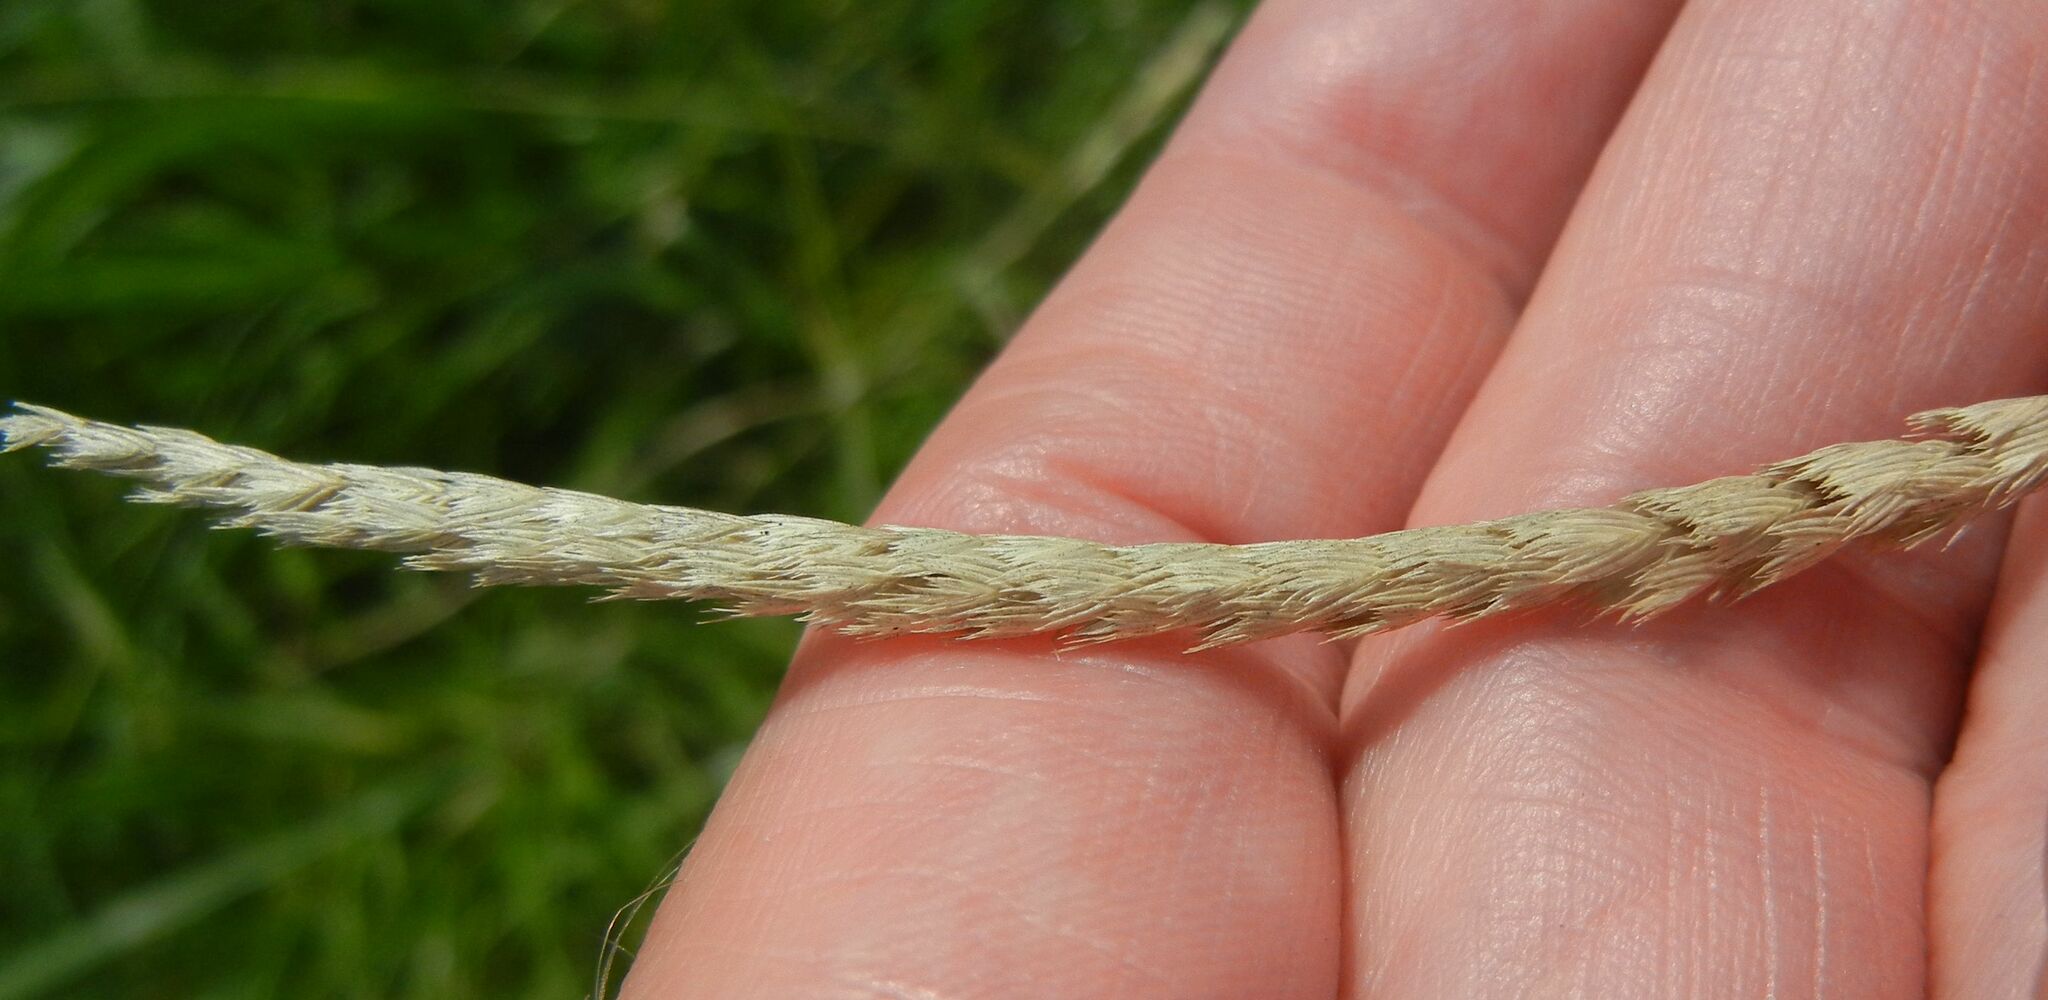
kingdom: Plantae
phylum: Tracheophyta
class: Liliopsida
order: Poales
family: Poaceae
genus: Cynosurus
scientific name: Cynosurus cristatus
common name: Crested dog's-tail
